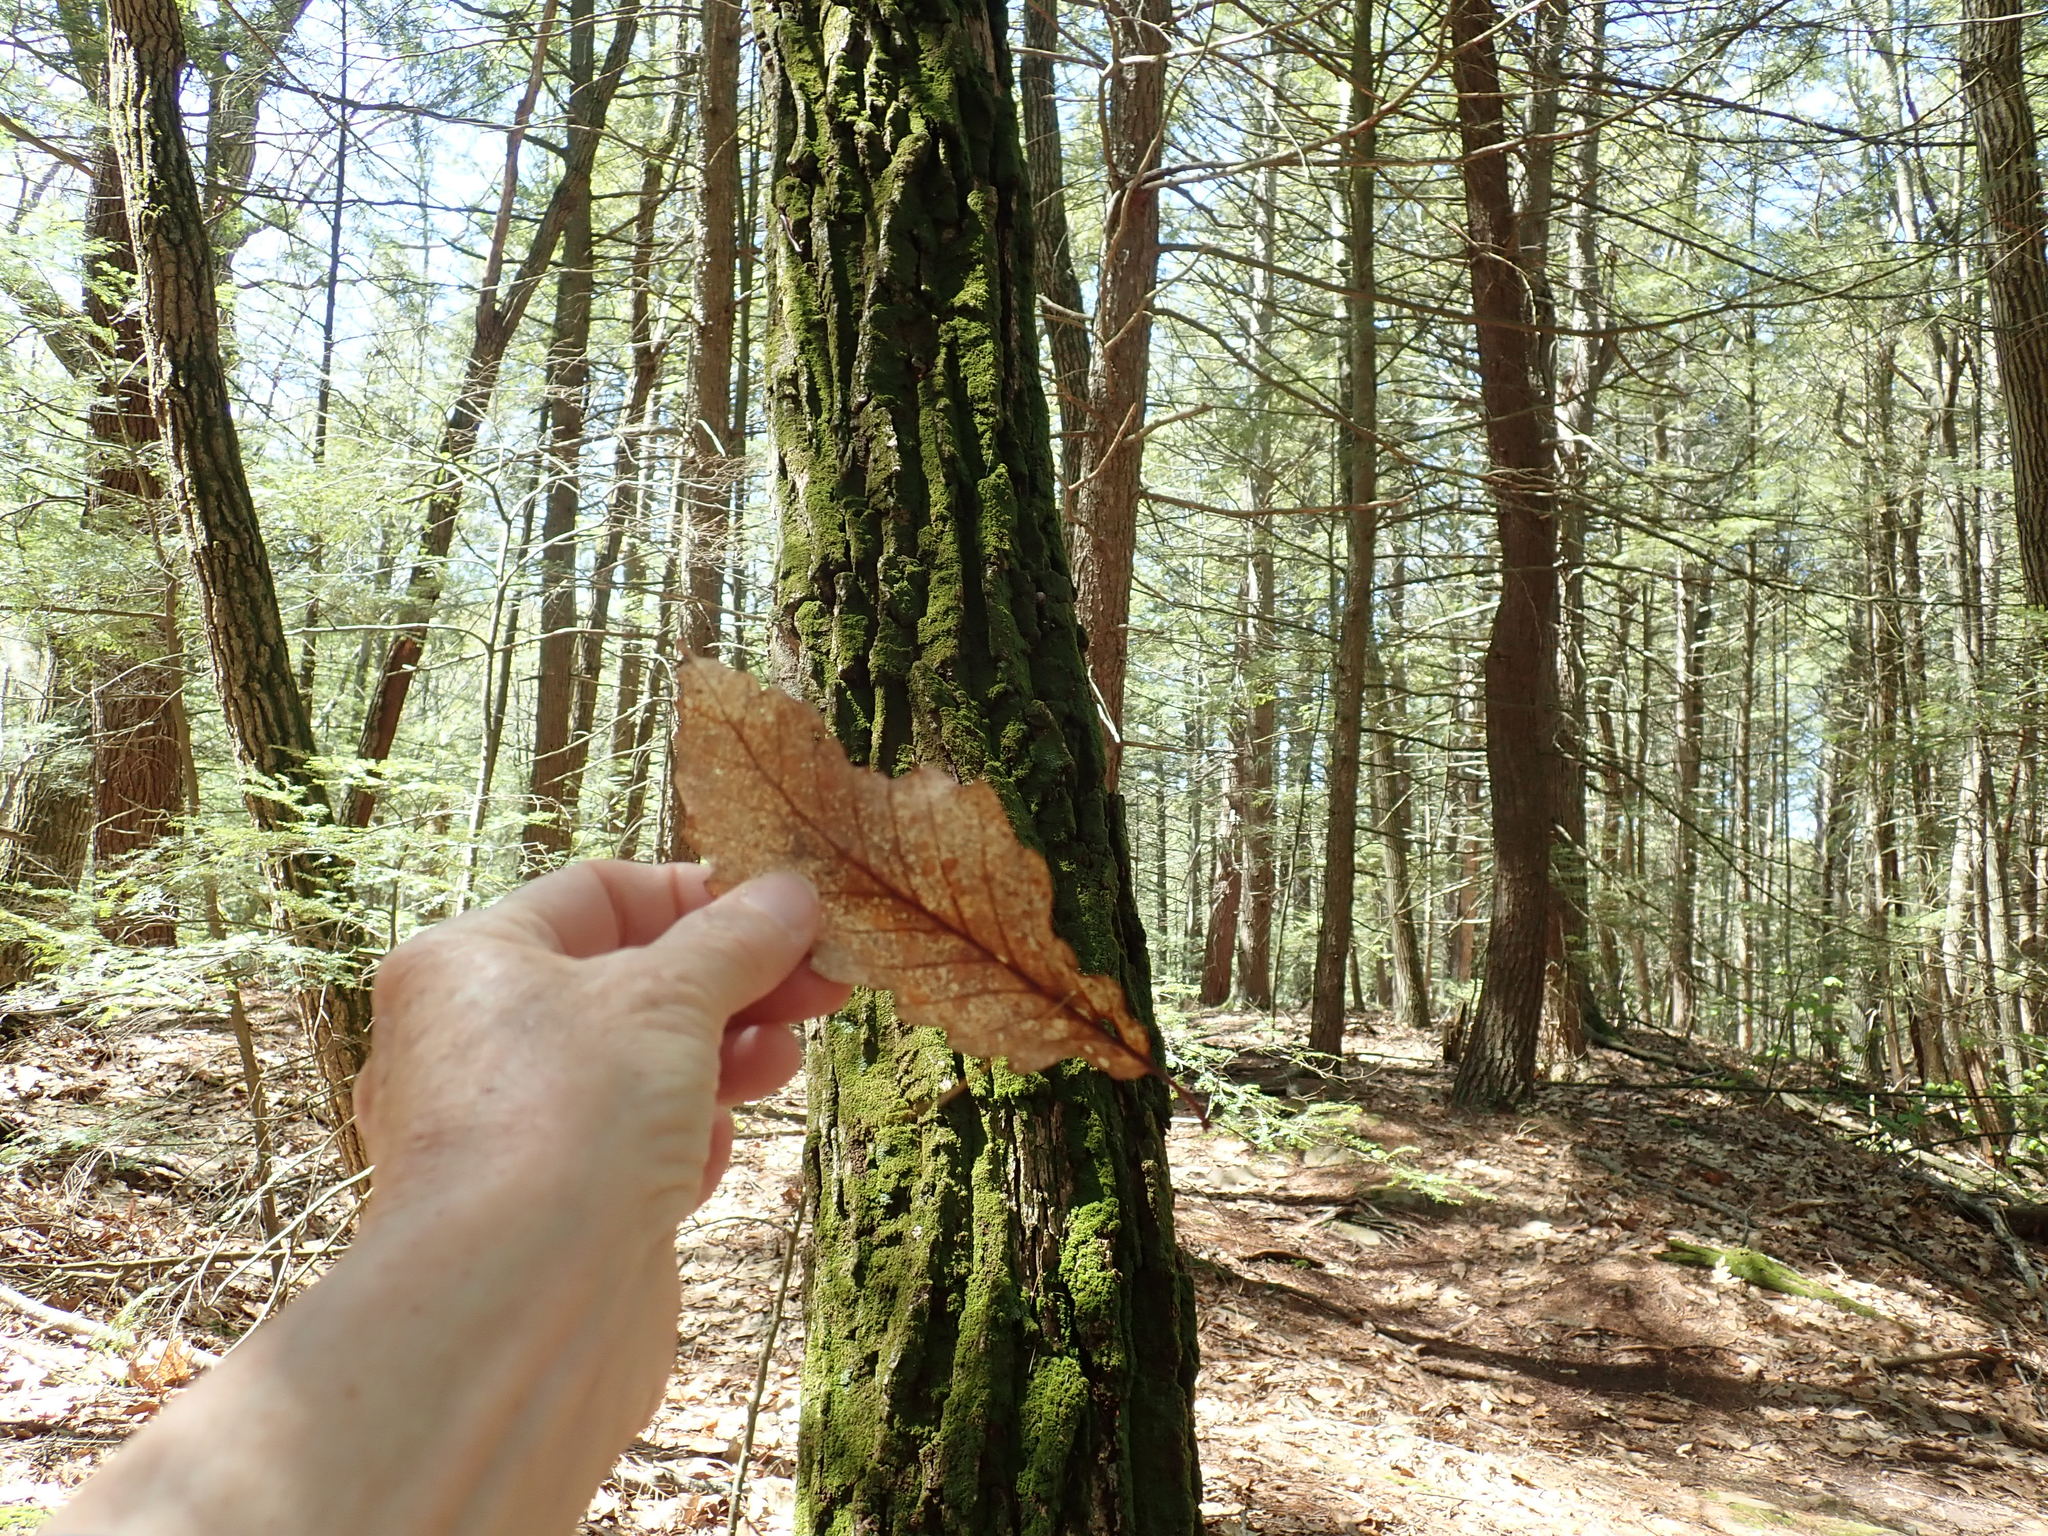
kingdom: Plantae
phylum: Tracheophyta
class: Magnoliopsida
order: Fagales
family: Fagaceae
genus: Quercus
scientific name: Quercus montana
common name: Chestnut oak
